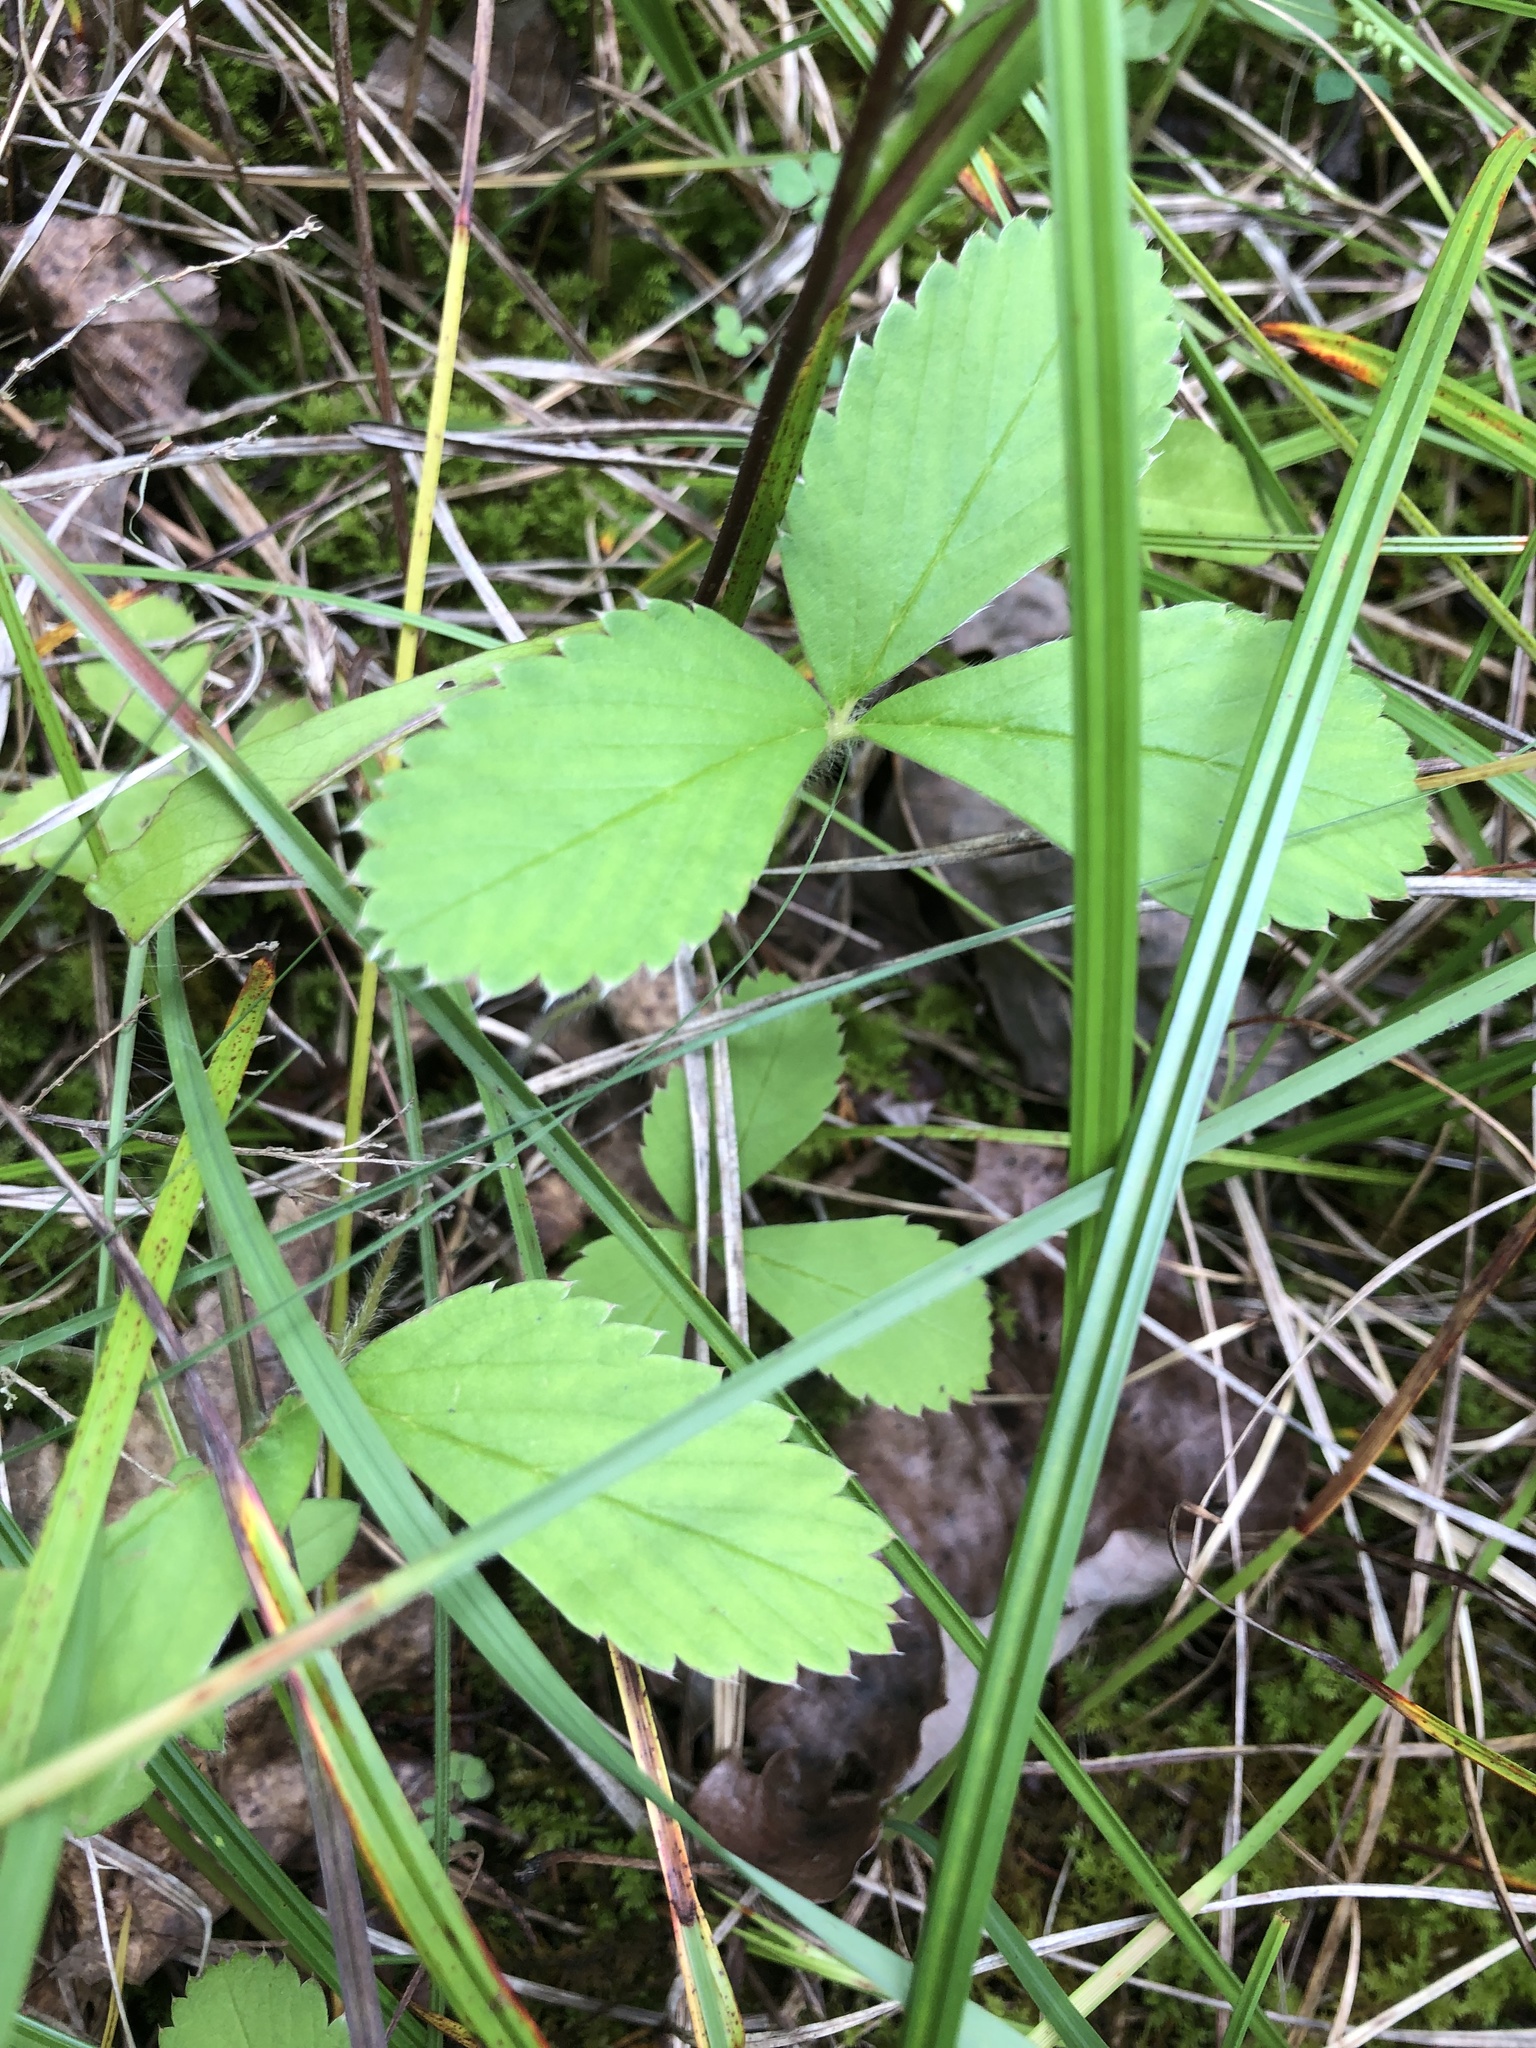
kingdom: Plantae
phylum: Tracheophyta
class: Magnoliopsida
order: Rosales
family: Rosaceae
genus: Fragaria
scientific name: Fragaria virginiana
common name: Thickleaved wild strawberry
